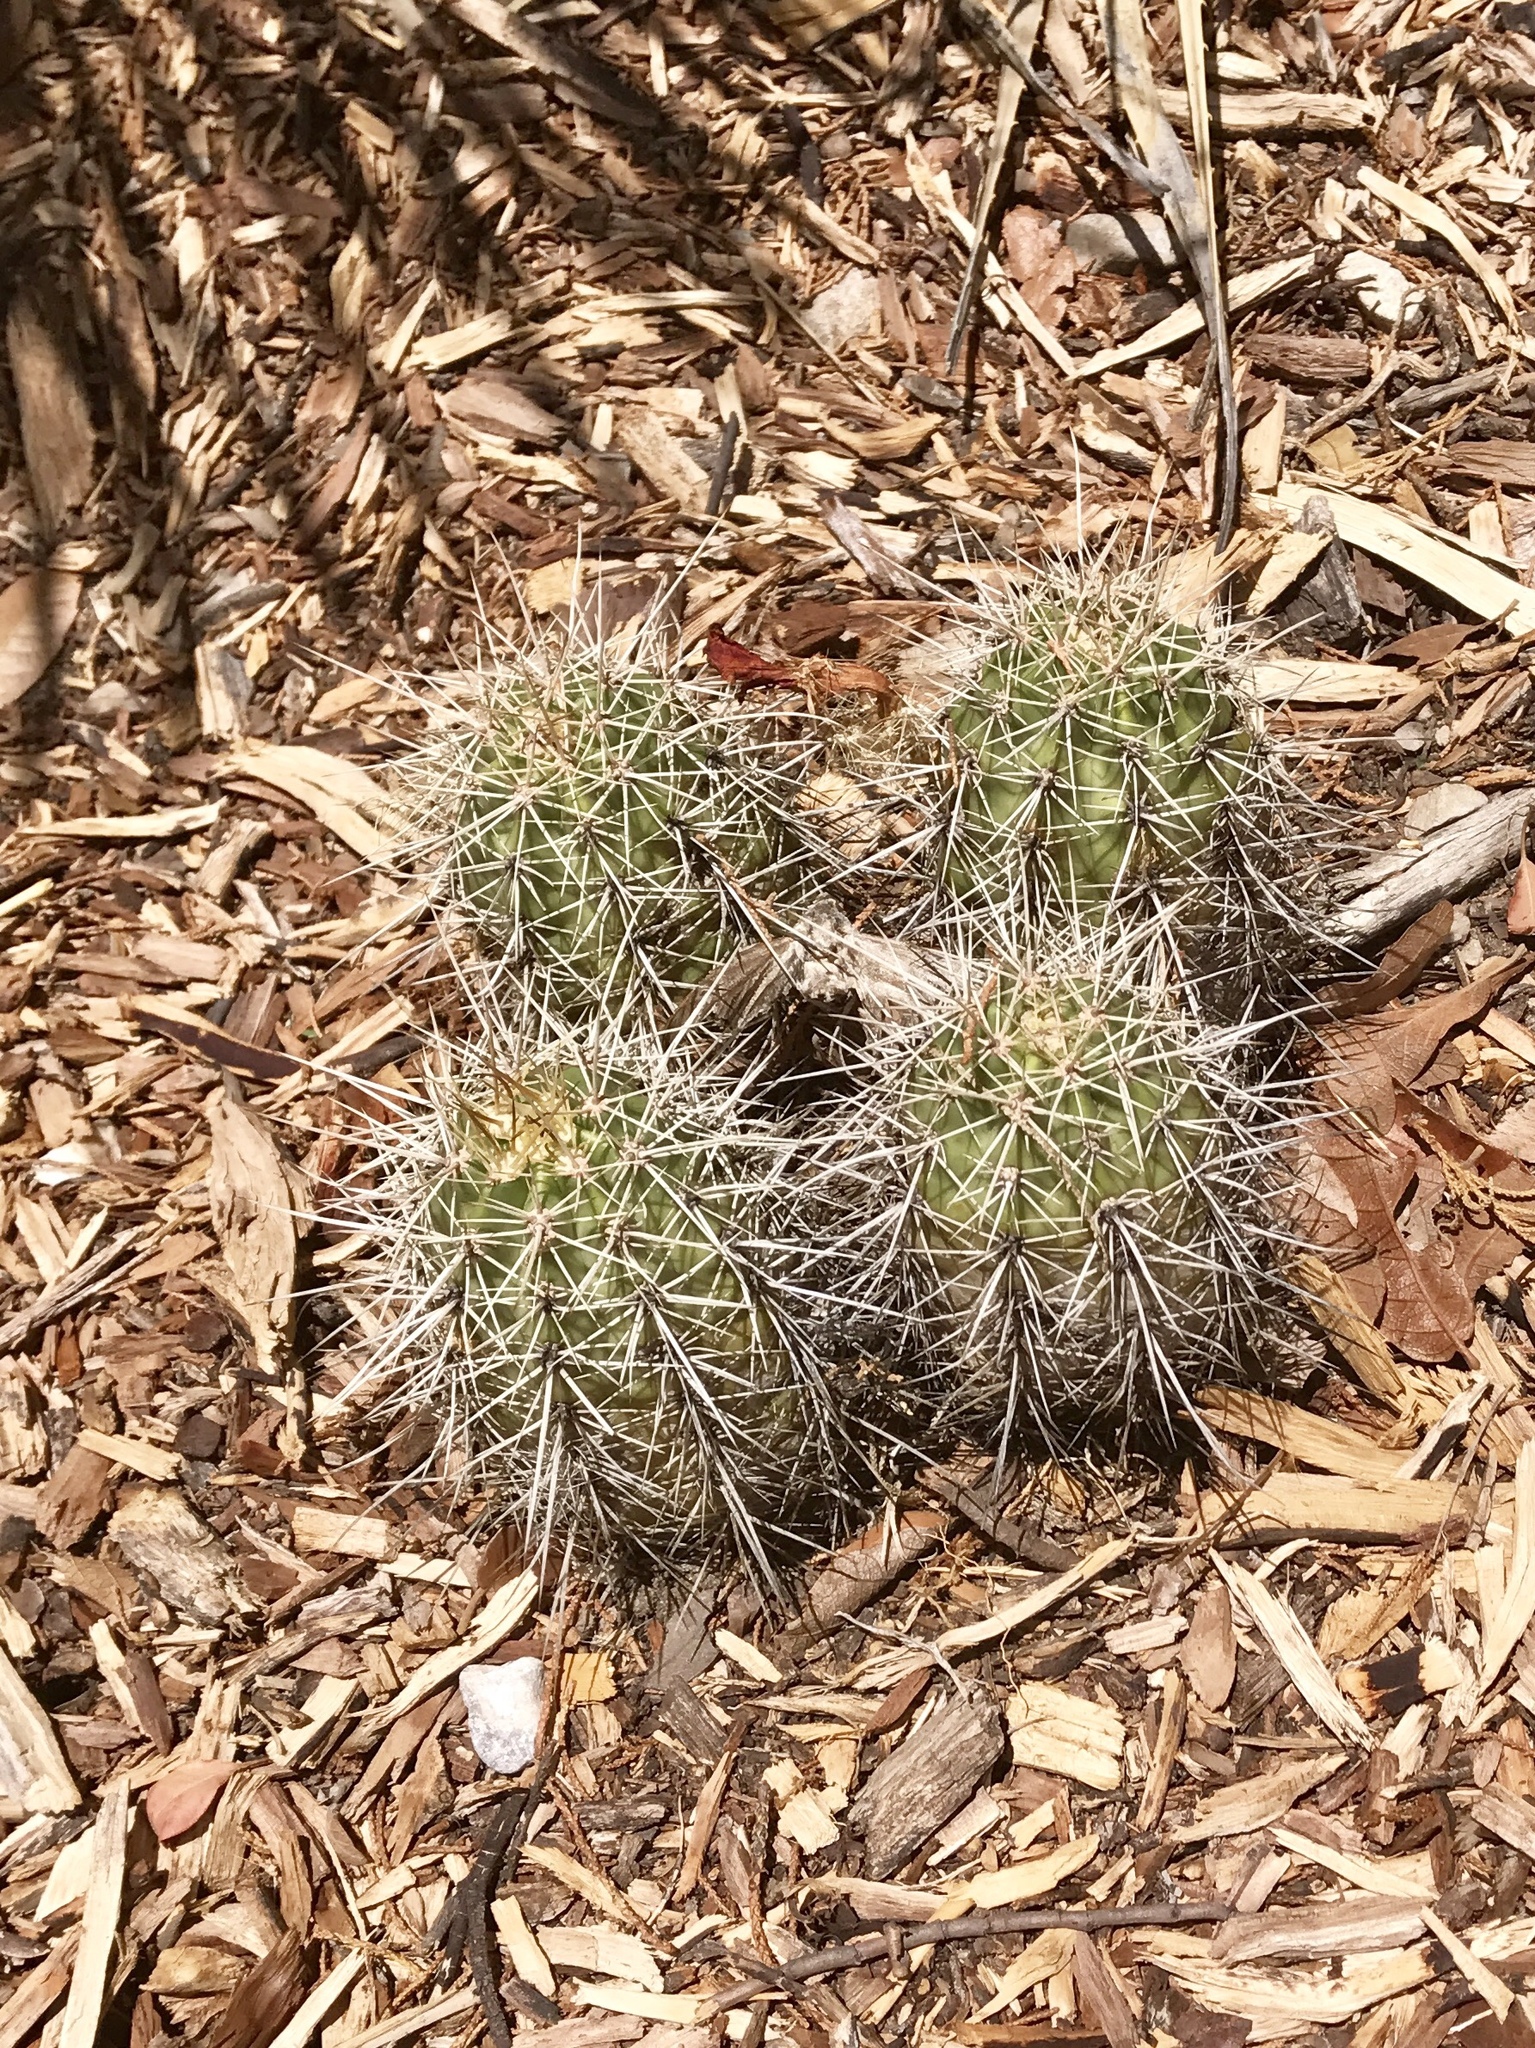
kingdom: Plantae
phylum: Tracheophyta
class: Magnoliopsida
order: Caryophyllales
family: Cactaceae
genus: Echinocereus
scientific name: Echinocereus coccineus
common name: Scarlet hedgehog cactus
